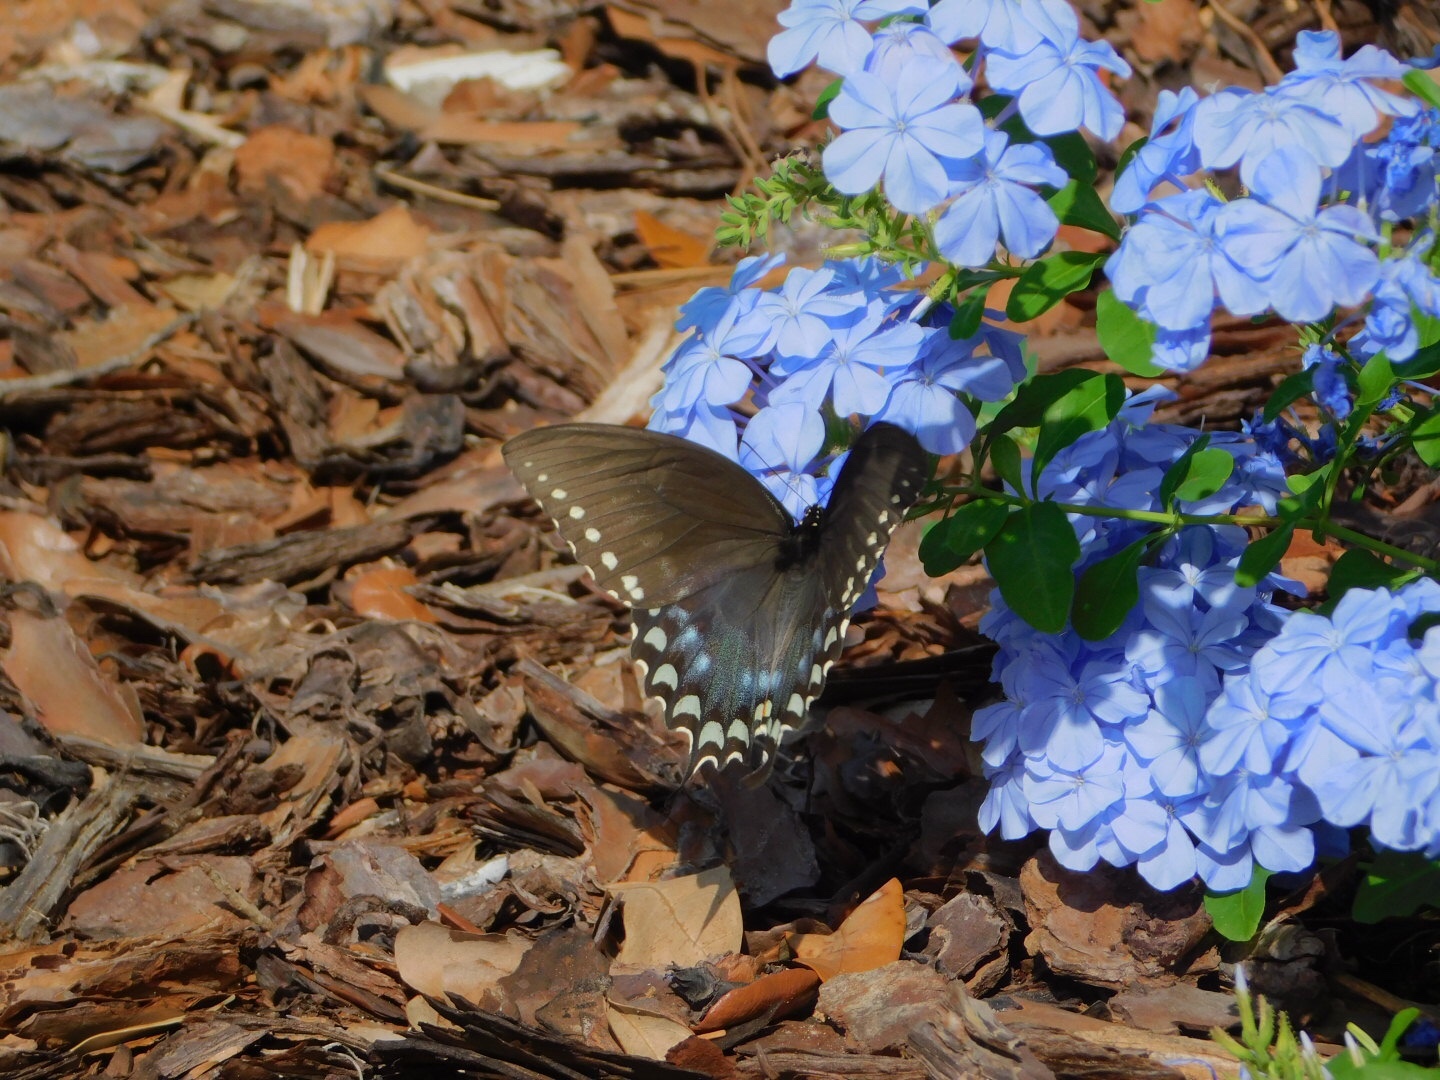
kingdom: Animalia
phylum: Arthropoda
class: Insecta
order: Lepidoptera
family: Papilionidae
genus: Papilio
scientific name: Papilio troilus
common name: Spicebush swallowtail
